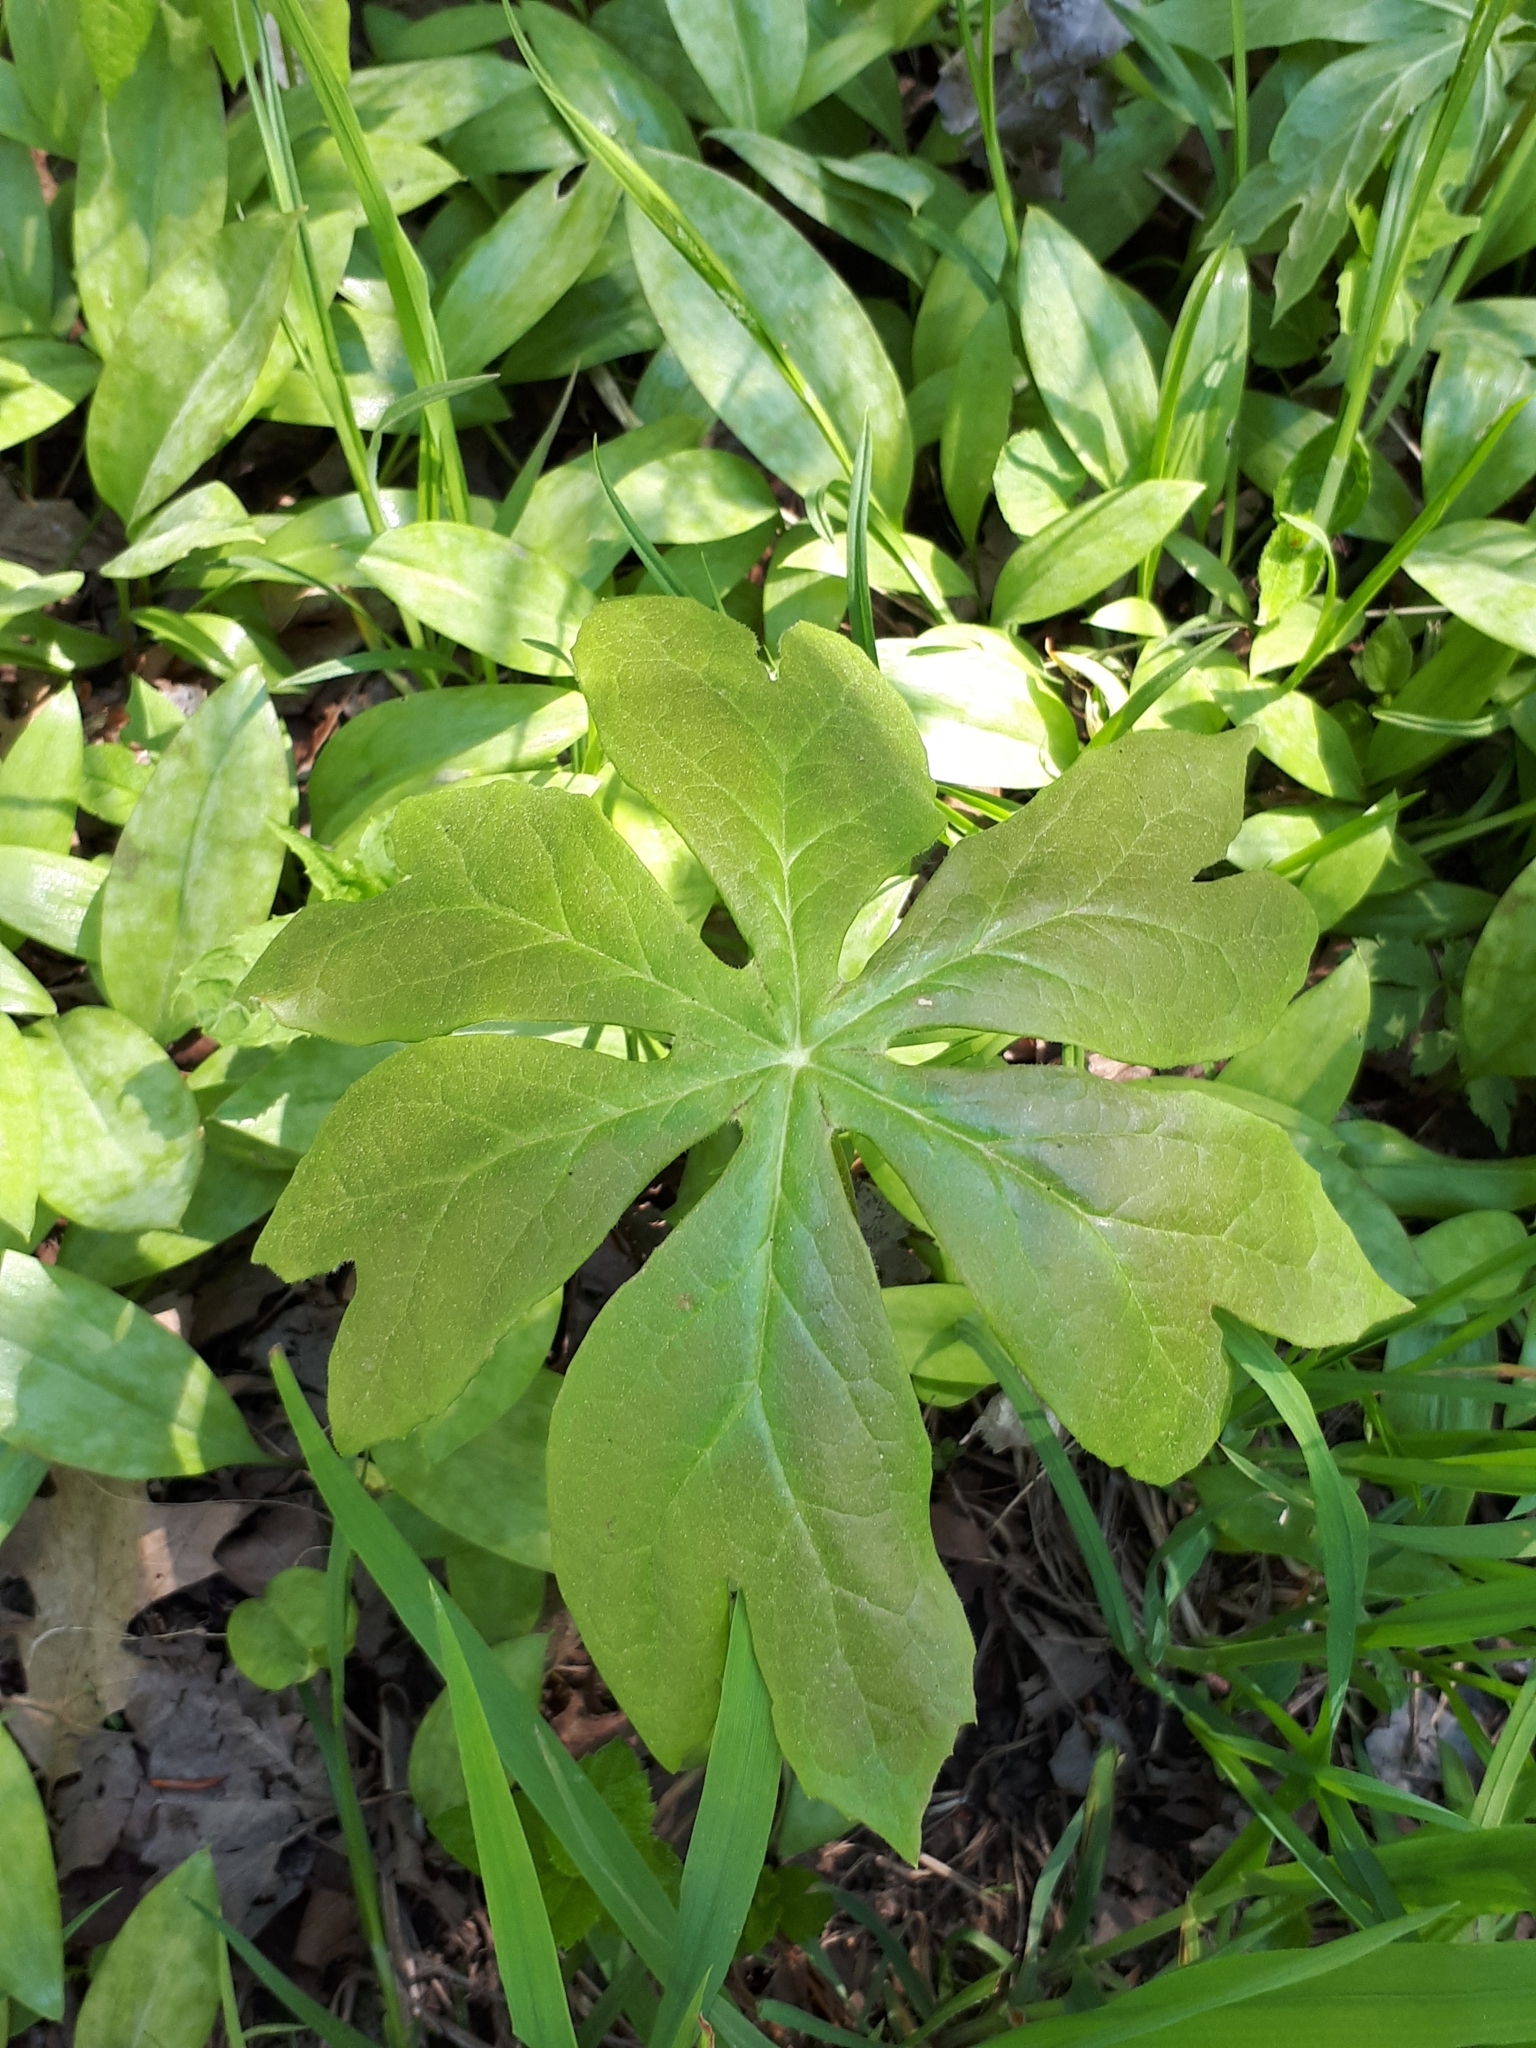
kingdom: Plantae
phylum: Tracheophyta
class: Magnoliopsida
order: Ranunculales
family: Berberidaceae
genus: Podophyllum
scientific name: Podophyllum peltatum
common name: Wild mandrake
